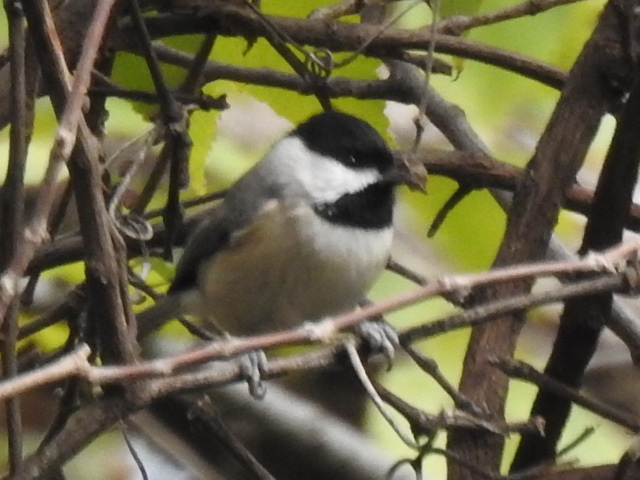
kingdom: Animalia
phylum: Chordata
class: Aves
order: Passeriformes
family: Paridae
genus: Poecile
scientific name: Poecile carolinensis
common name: Carolina chickadee
